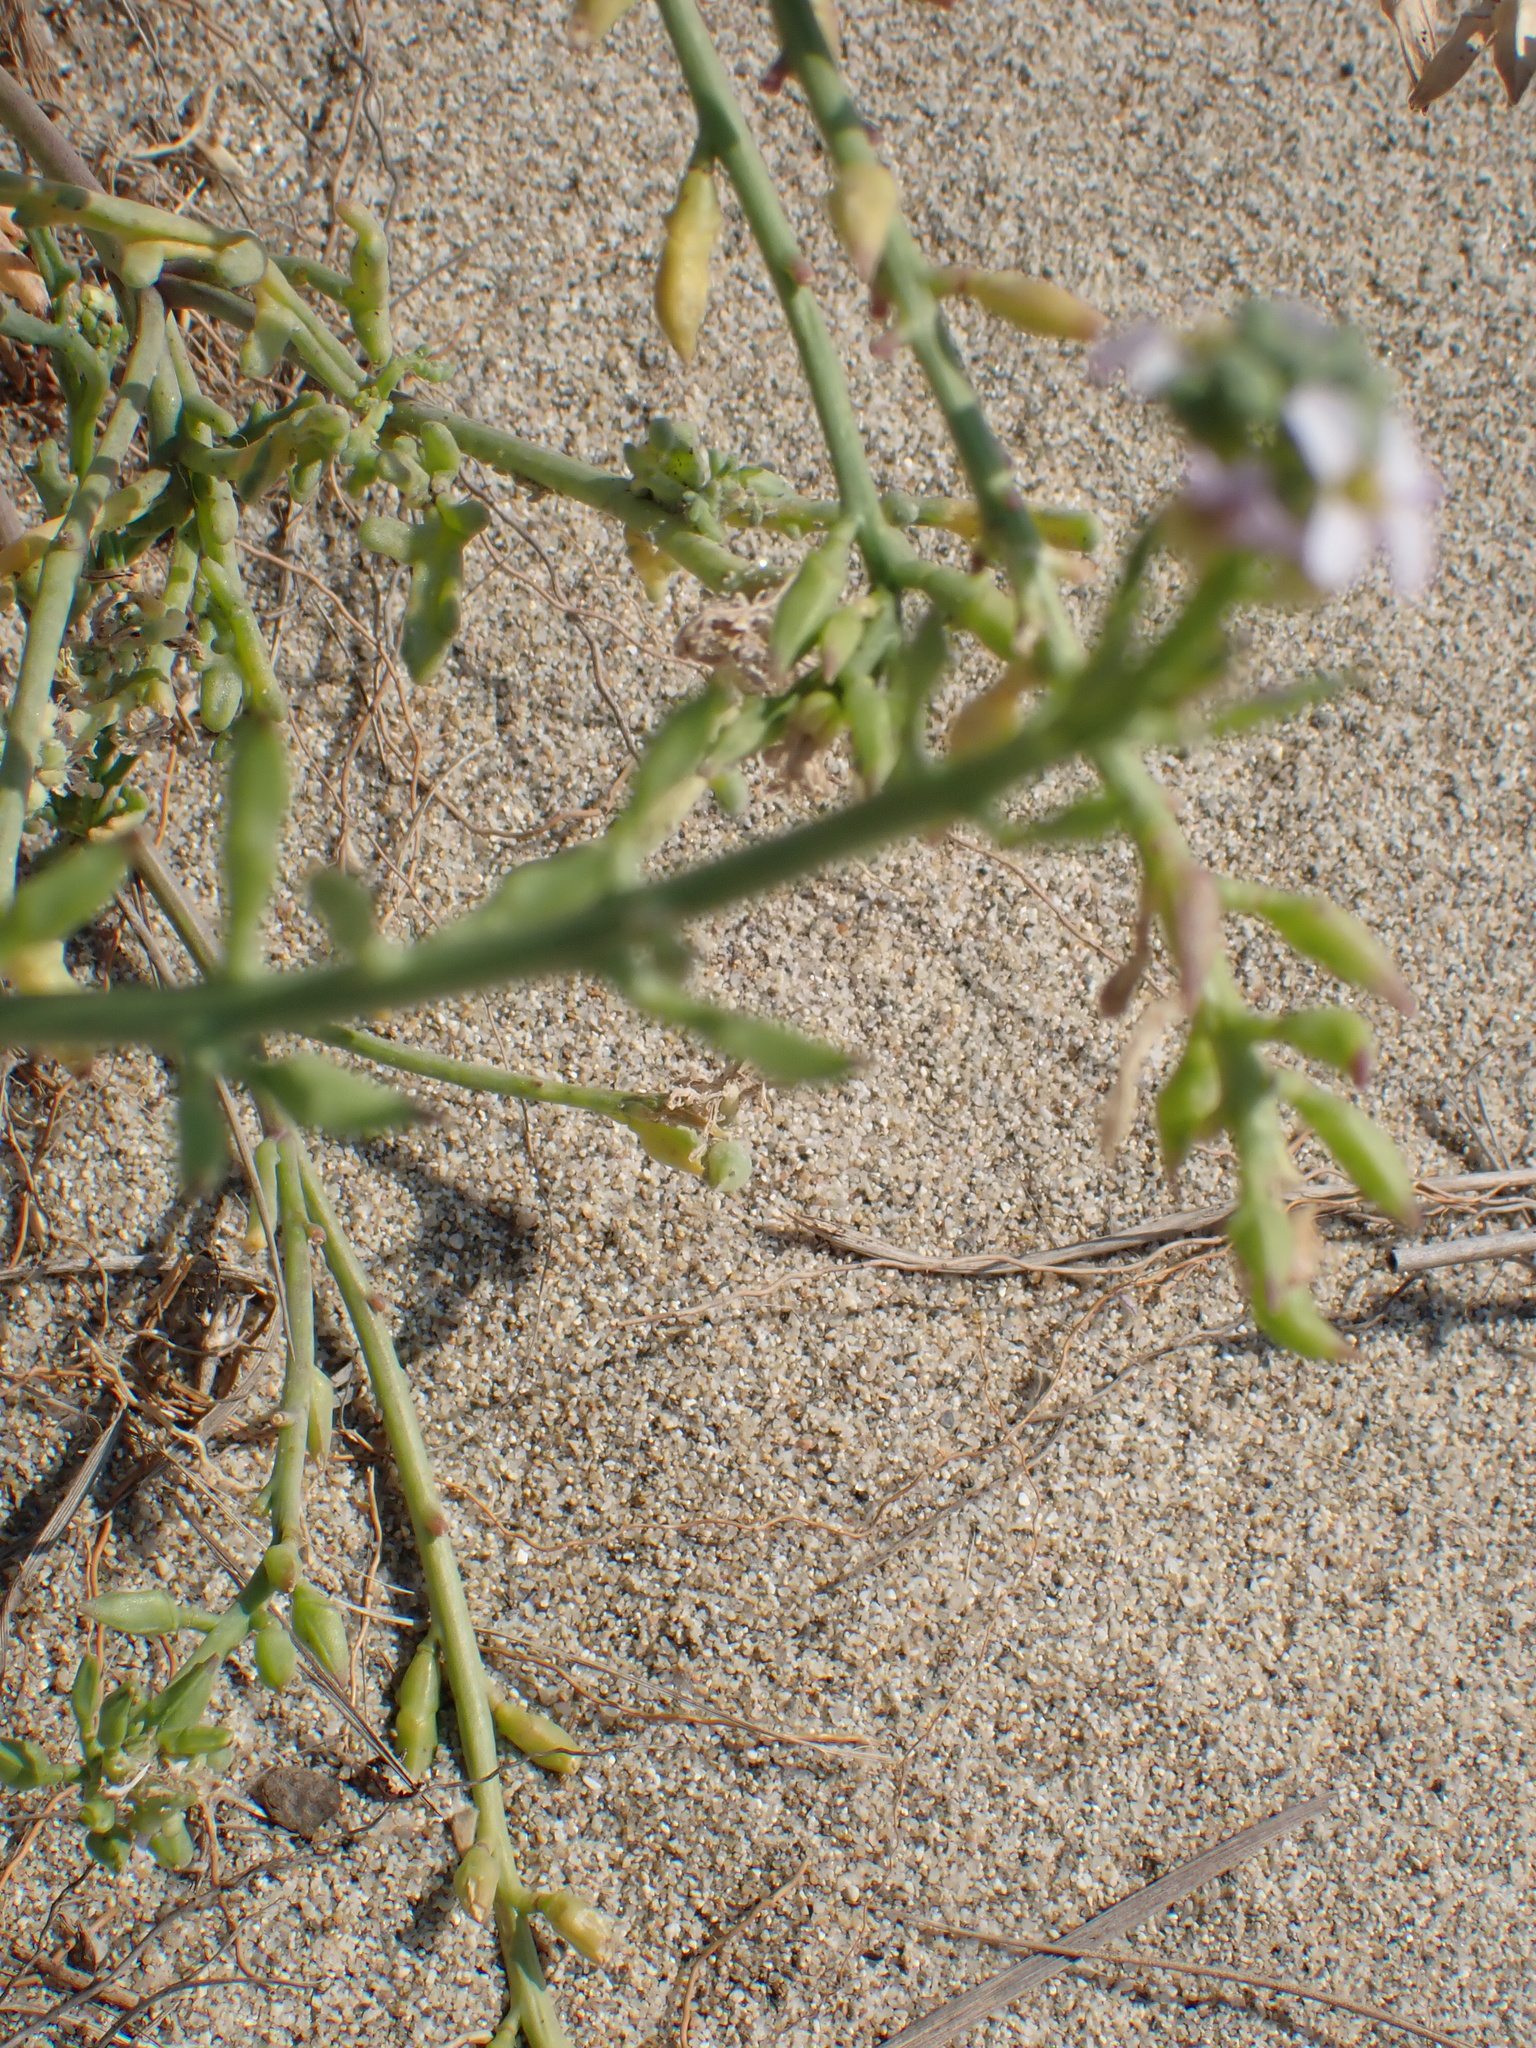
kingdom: Plantae
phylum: Tracheophyta
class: Magnoliopsida
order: Brassicales
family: Brassicaceae
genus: Cakile
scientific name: Cakile maritima
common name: Sea rocket
